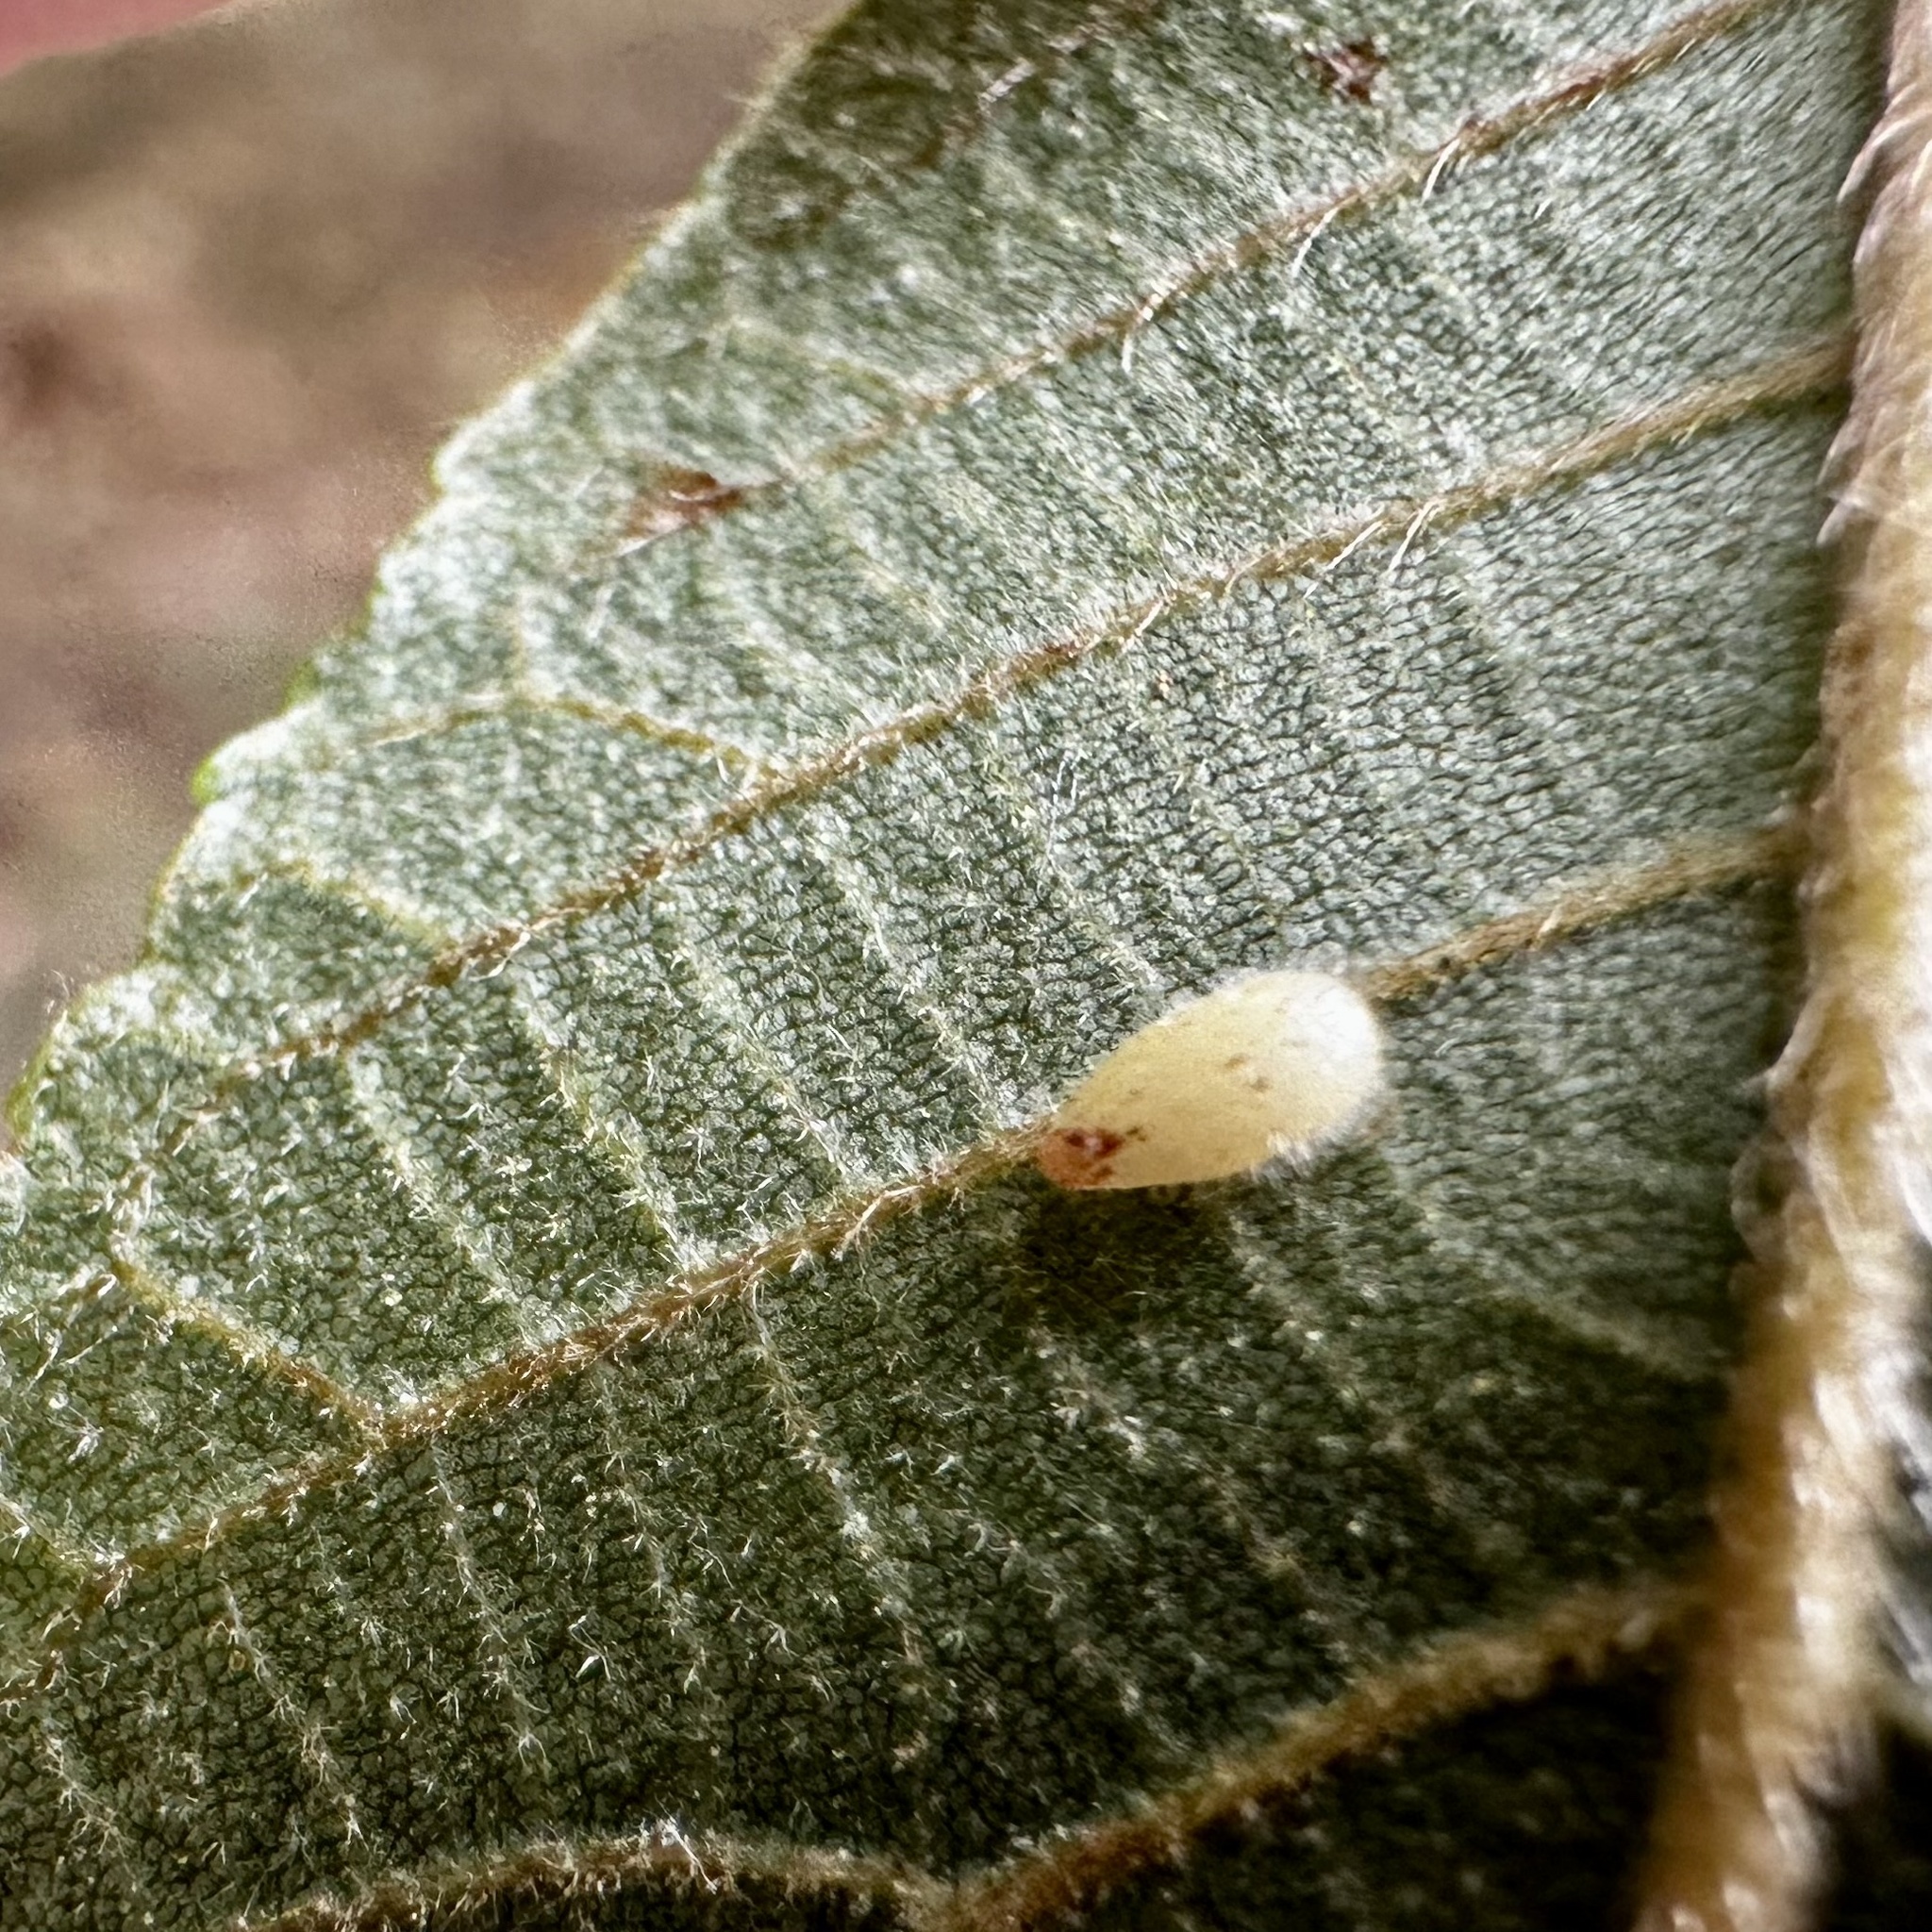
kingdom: Animalia
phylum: Arthropoda
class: Insecta
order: Diptera
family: Cecidomyiidae
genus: Caryomyia
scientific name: Caryomyia eumaris
